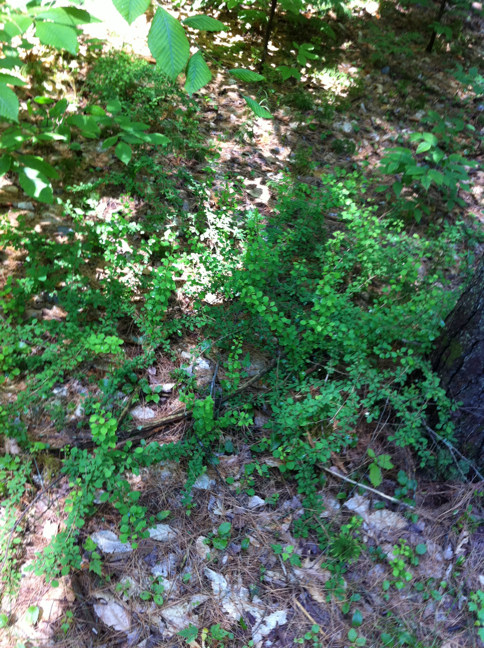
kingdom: Plantae
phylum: Tracheophyta
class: Magnoliopsida
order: Ranunculales
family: Berberidaceae
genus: Berberis
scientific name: Berberis thunbergii
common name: Japanese barberry
